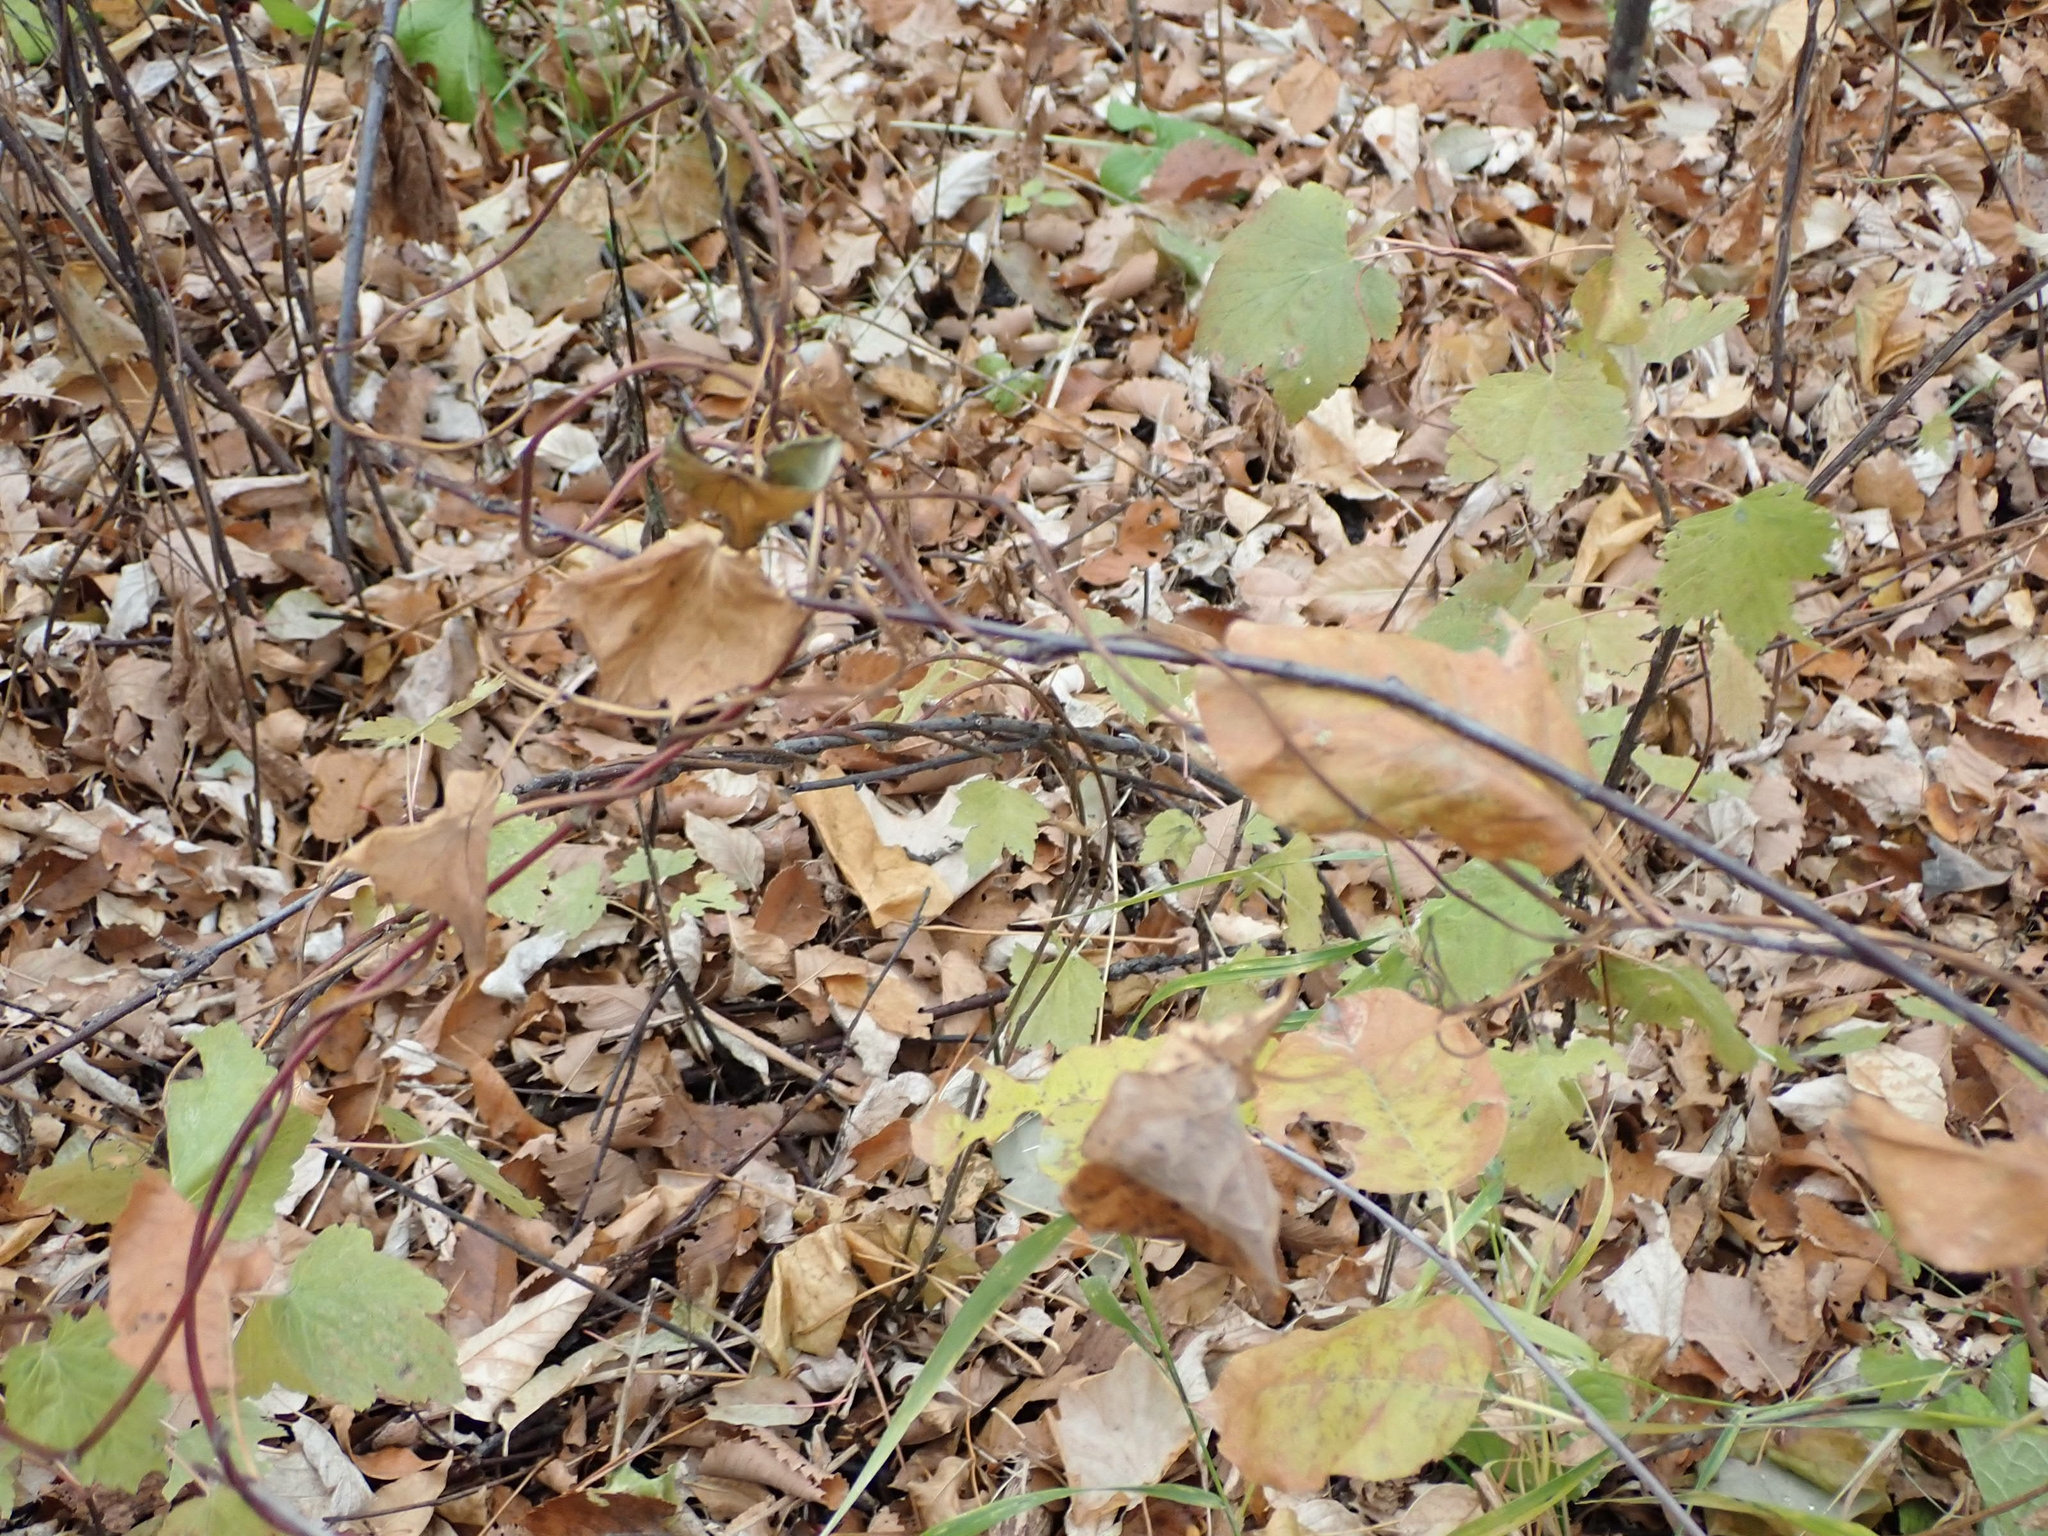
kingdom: Plantae
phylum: Tracheophyta
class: Magnoliopsida
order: Vitales
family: Vitaceae
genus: Vitis
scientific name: Vitis riparia
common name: Frost grape
